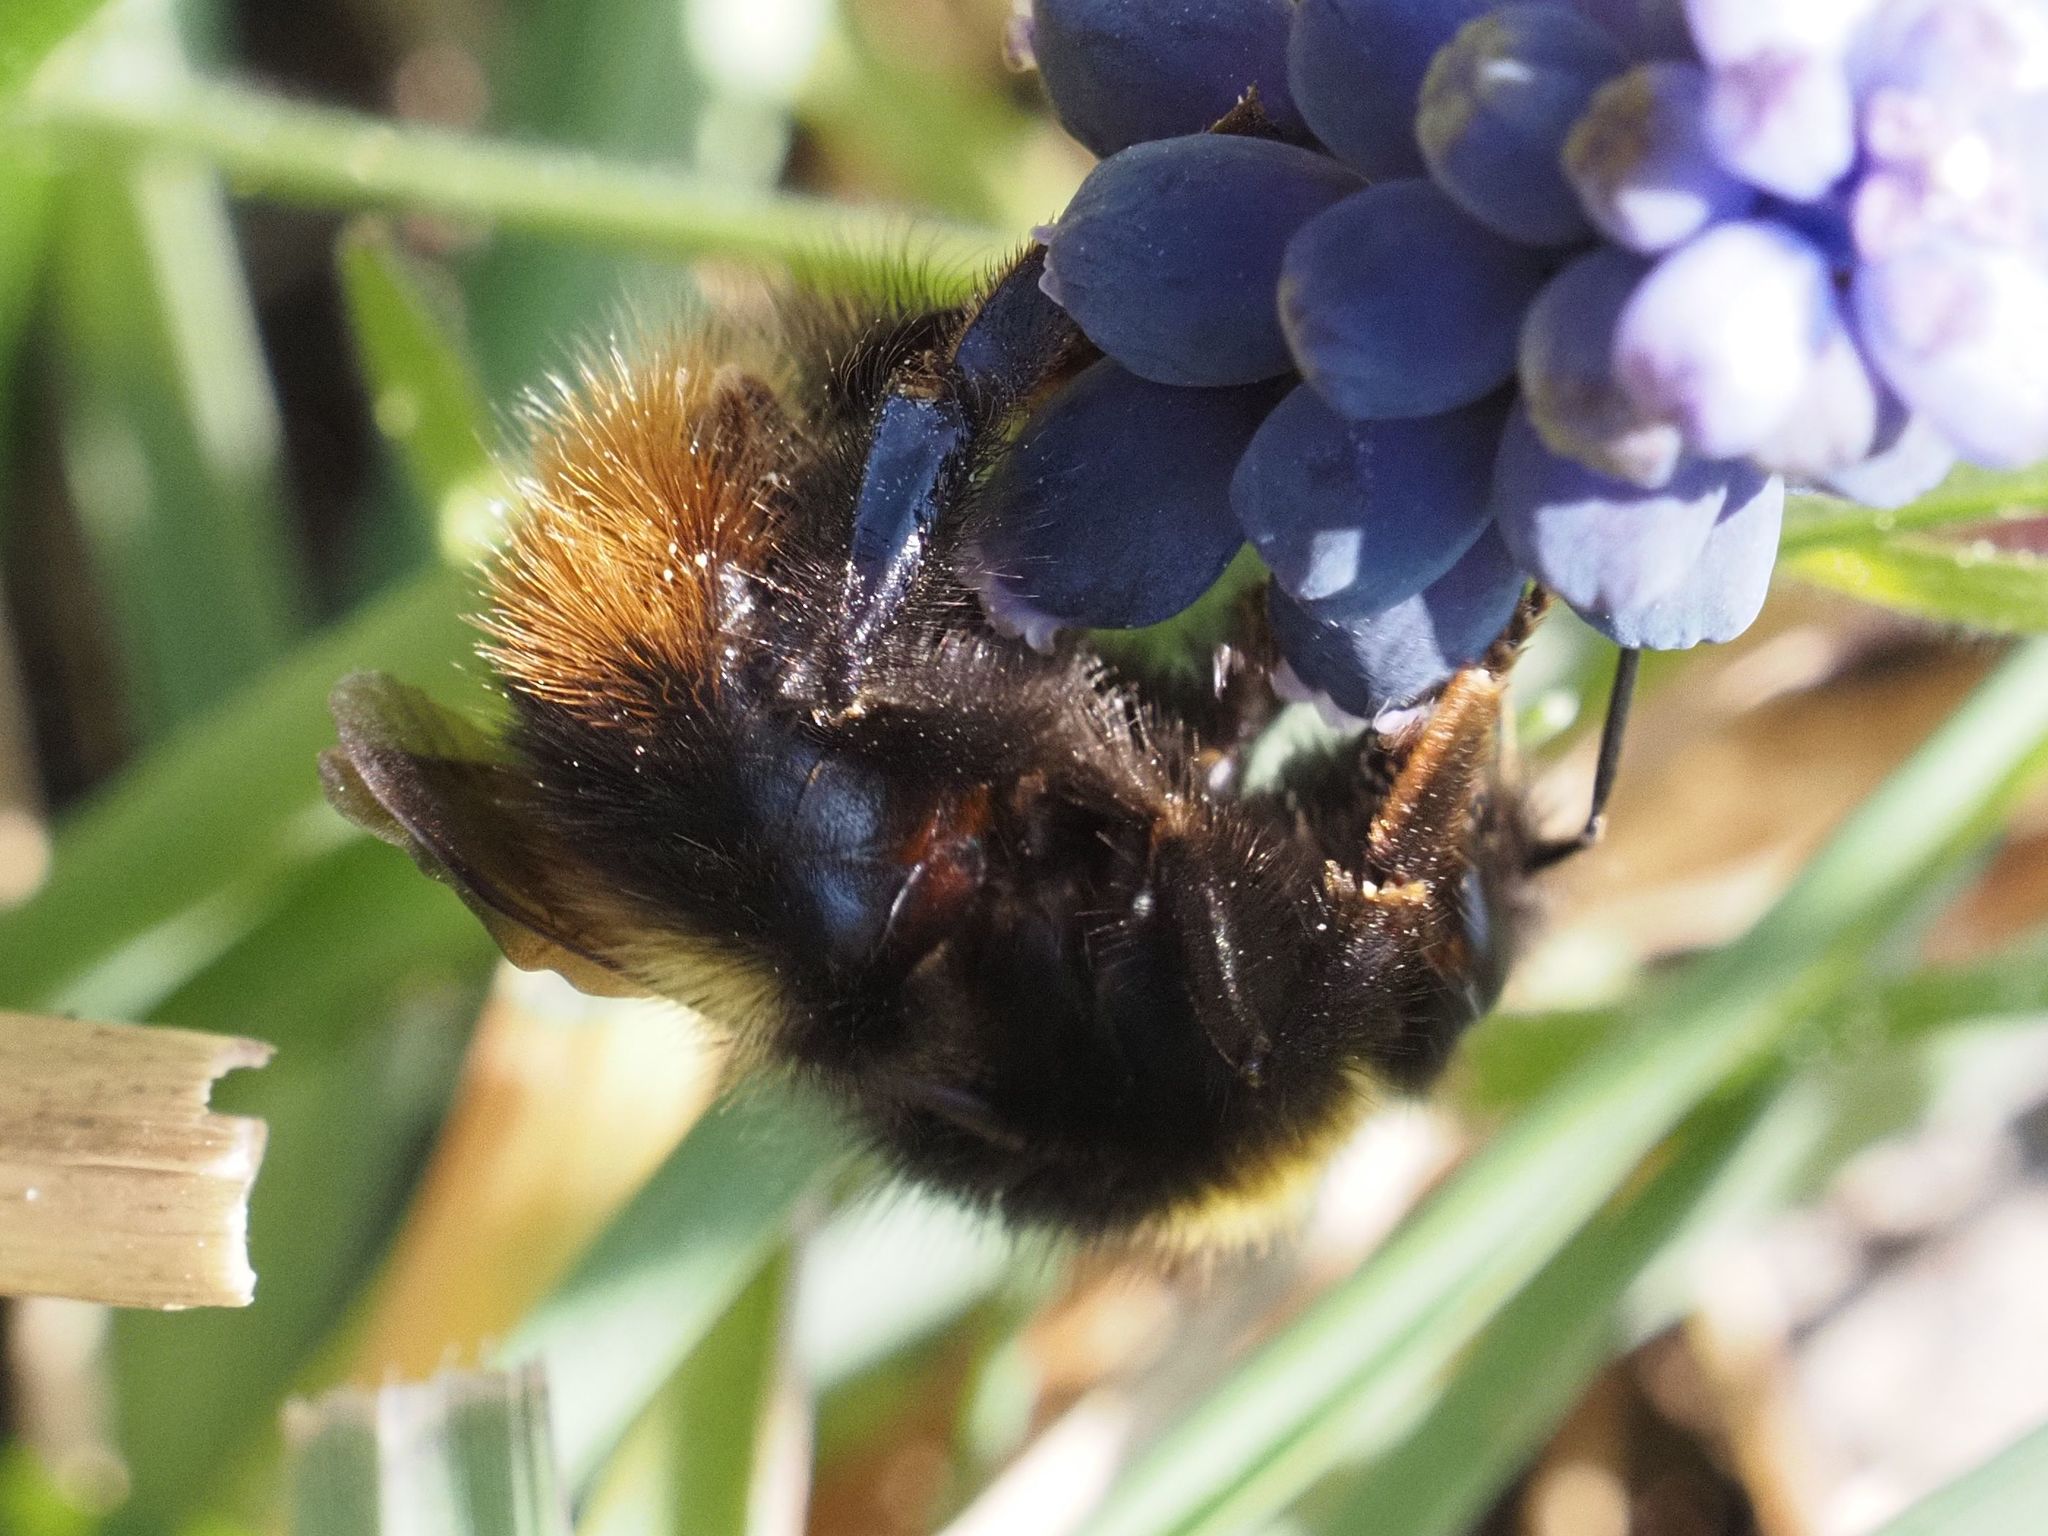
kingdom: Animalia
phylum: Arthropoda
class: Insecta
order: Hymenoptera
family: Apidae
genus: Bombus
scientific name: Bombus pratorum
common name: Early humble-bee
